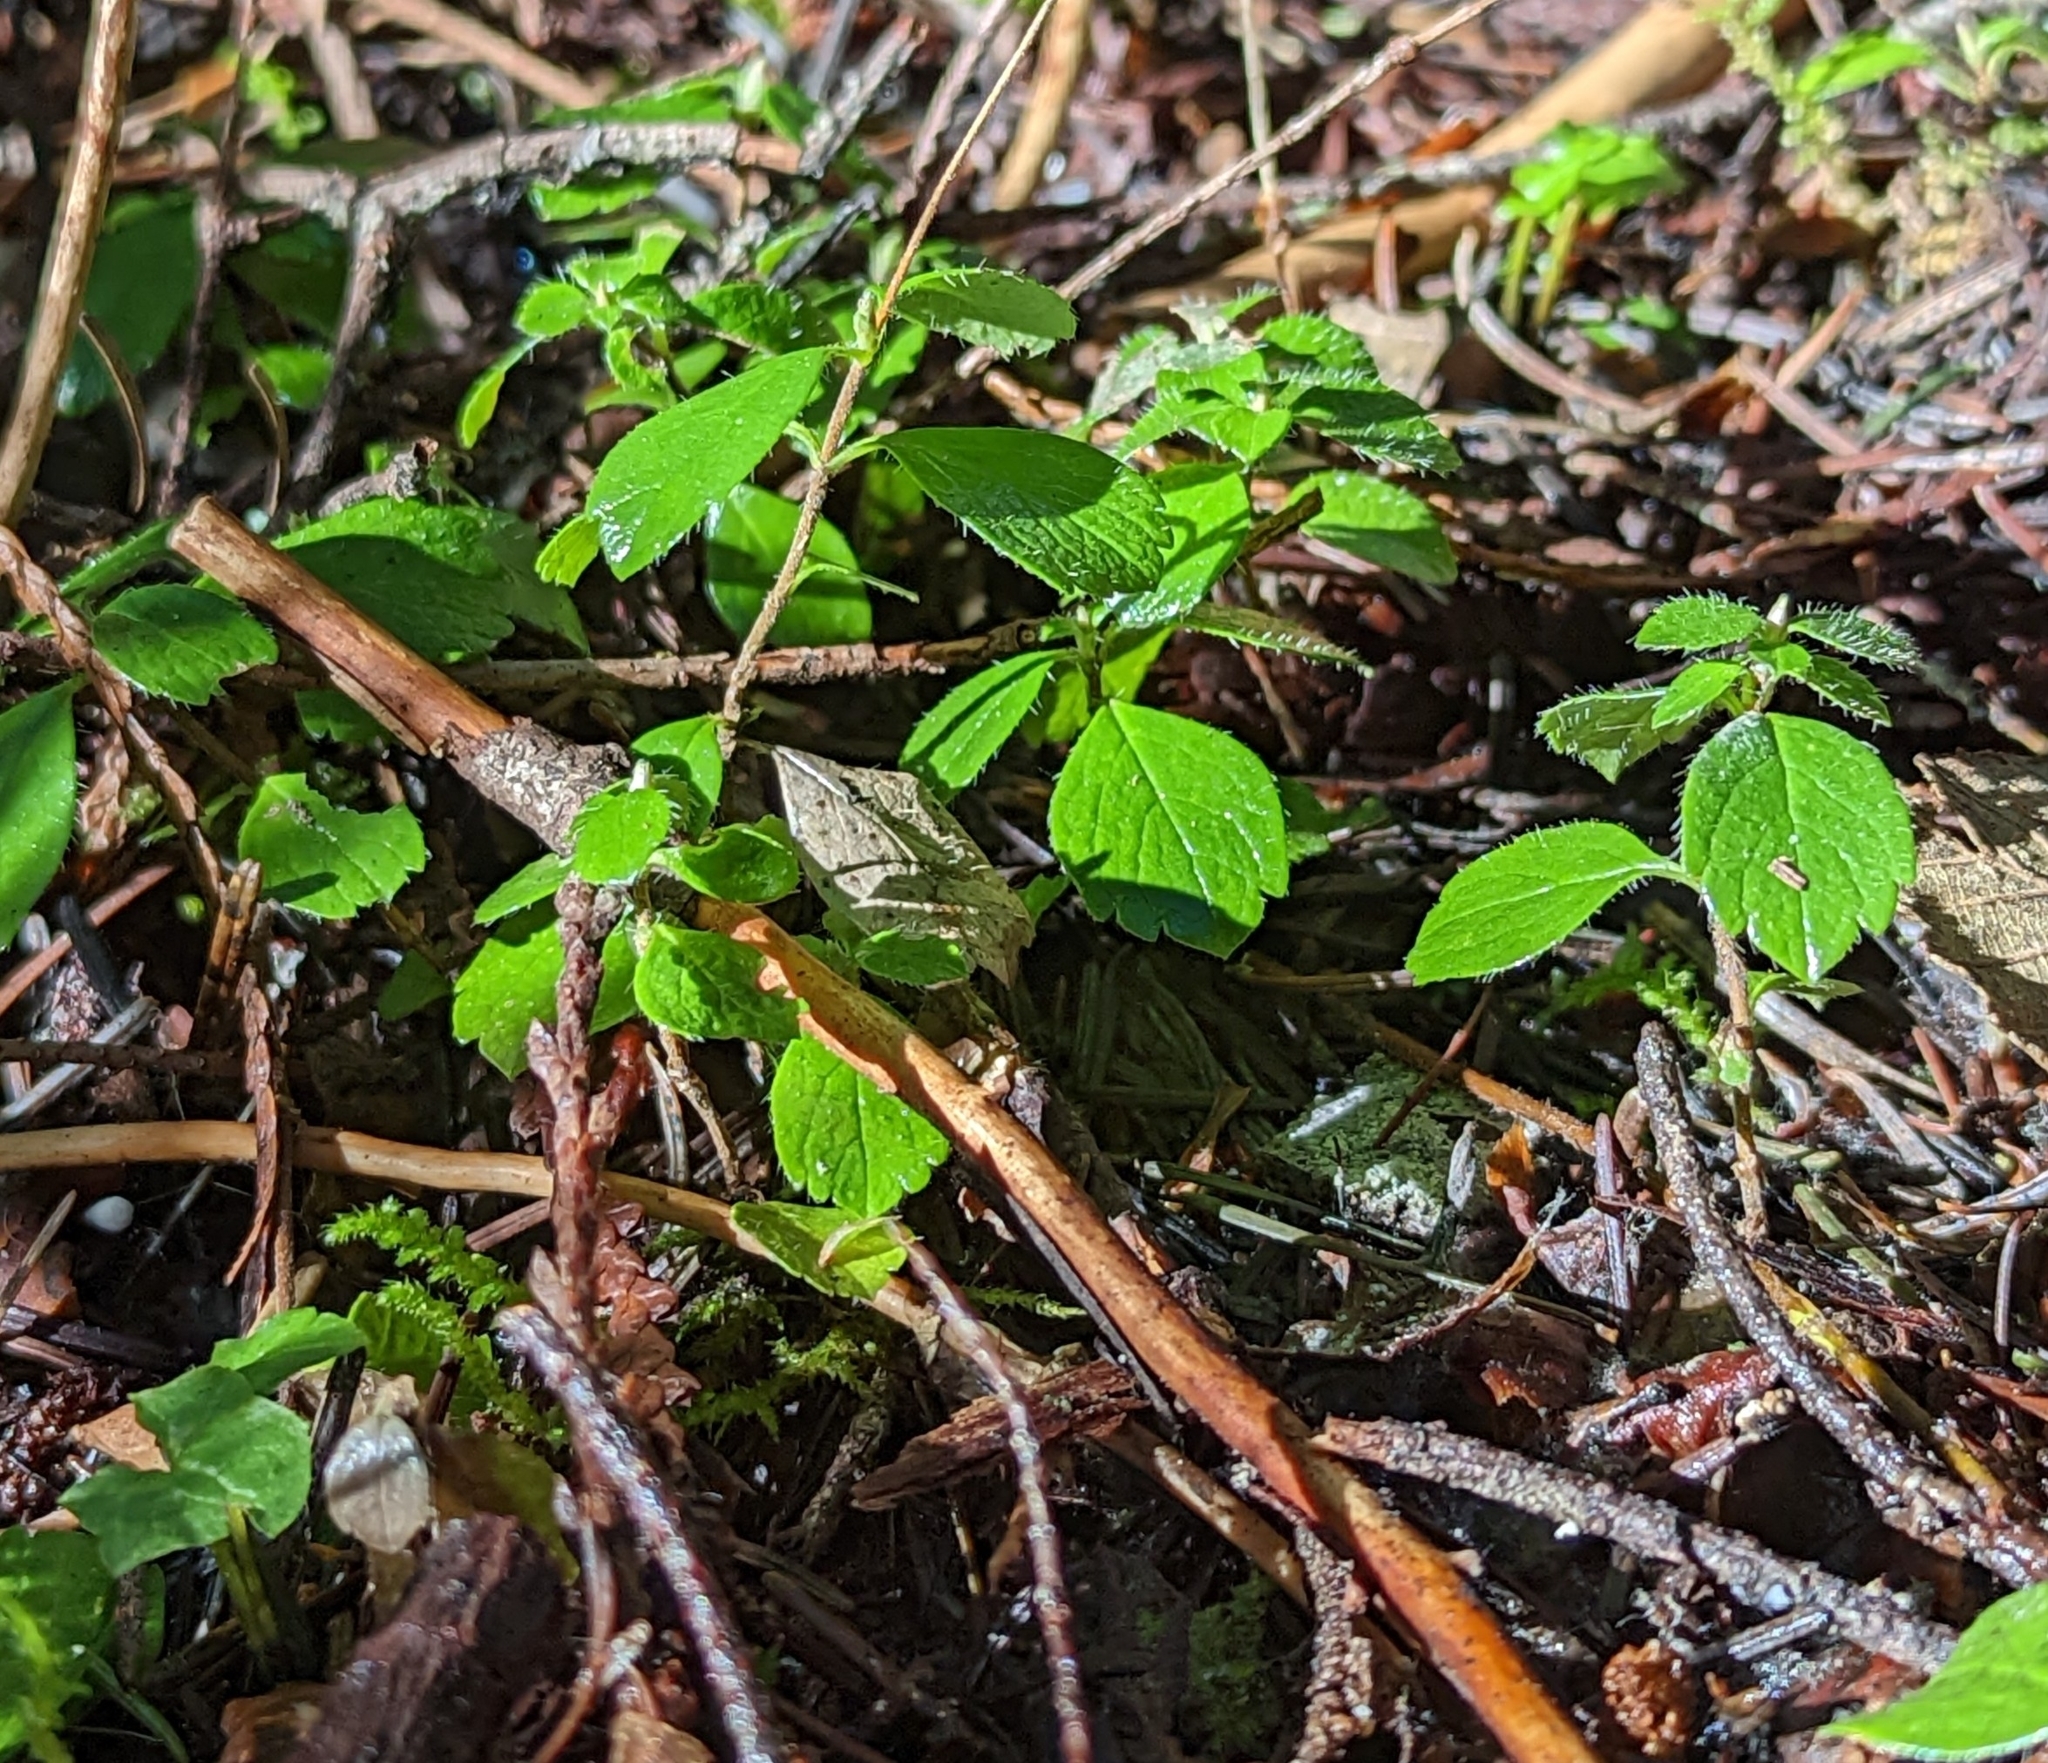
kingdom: Plantae
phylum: Tracheophyta
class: Magnoliopsida
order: Dipsacales
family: Caprifoliaceae
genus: Linnaea
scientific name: Linnaea borealis
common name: Twinflower
